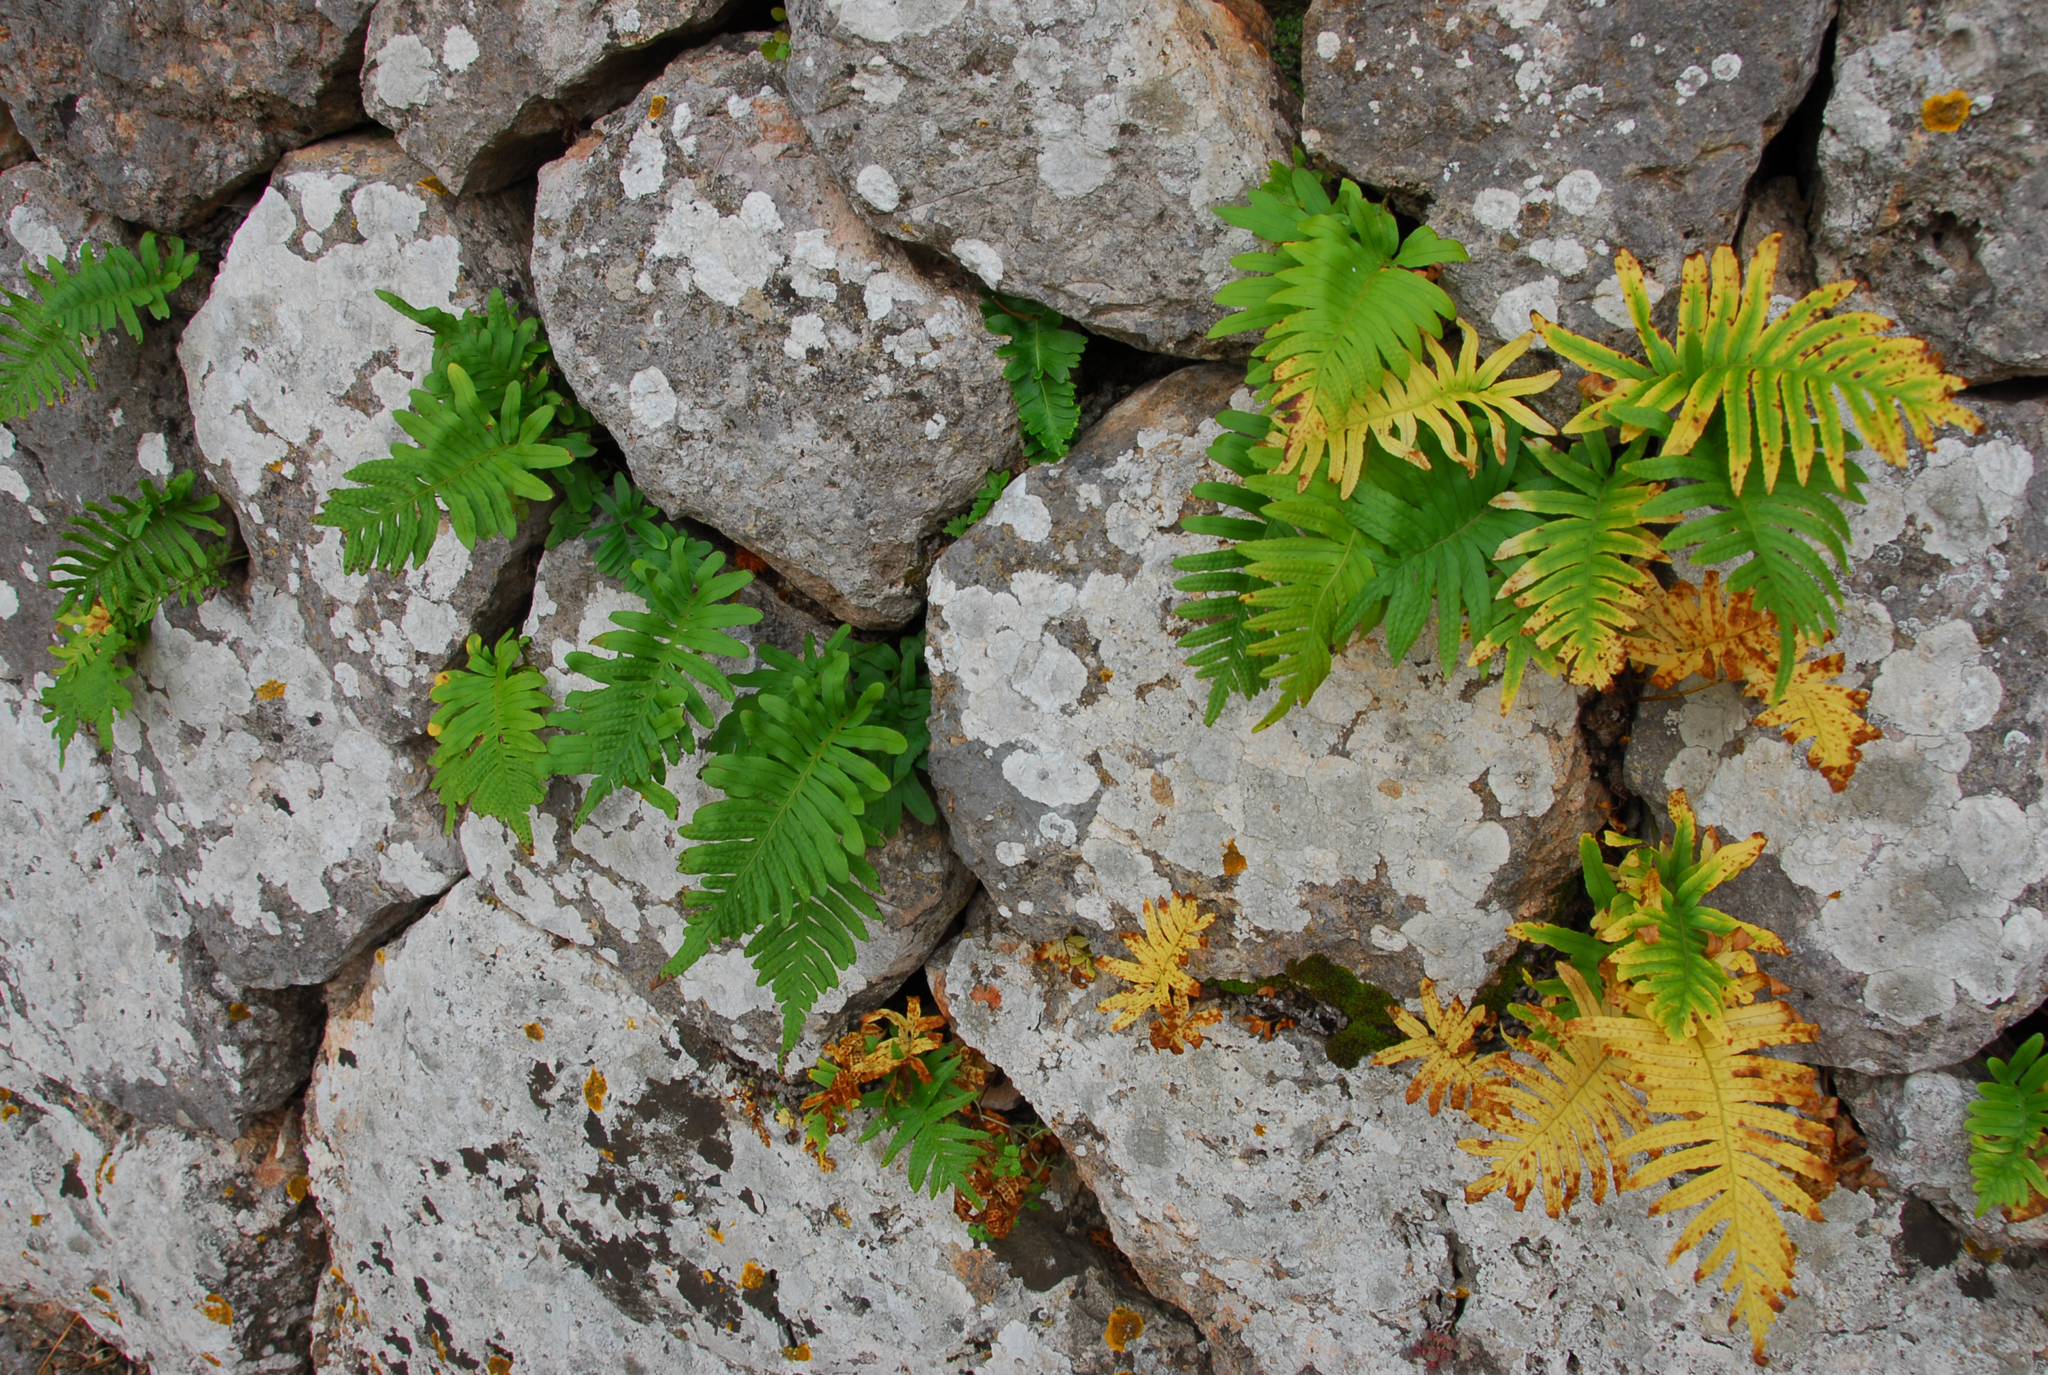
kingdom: Plantae
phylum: Tracheophyta
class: Polypodiopsida
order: Polypodiales
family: Polypodiaceae
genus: Polypodium
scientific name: Polypodium cambricum
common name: Southern polypody
